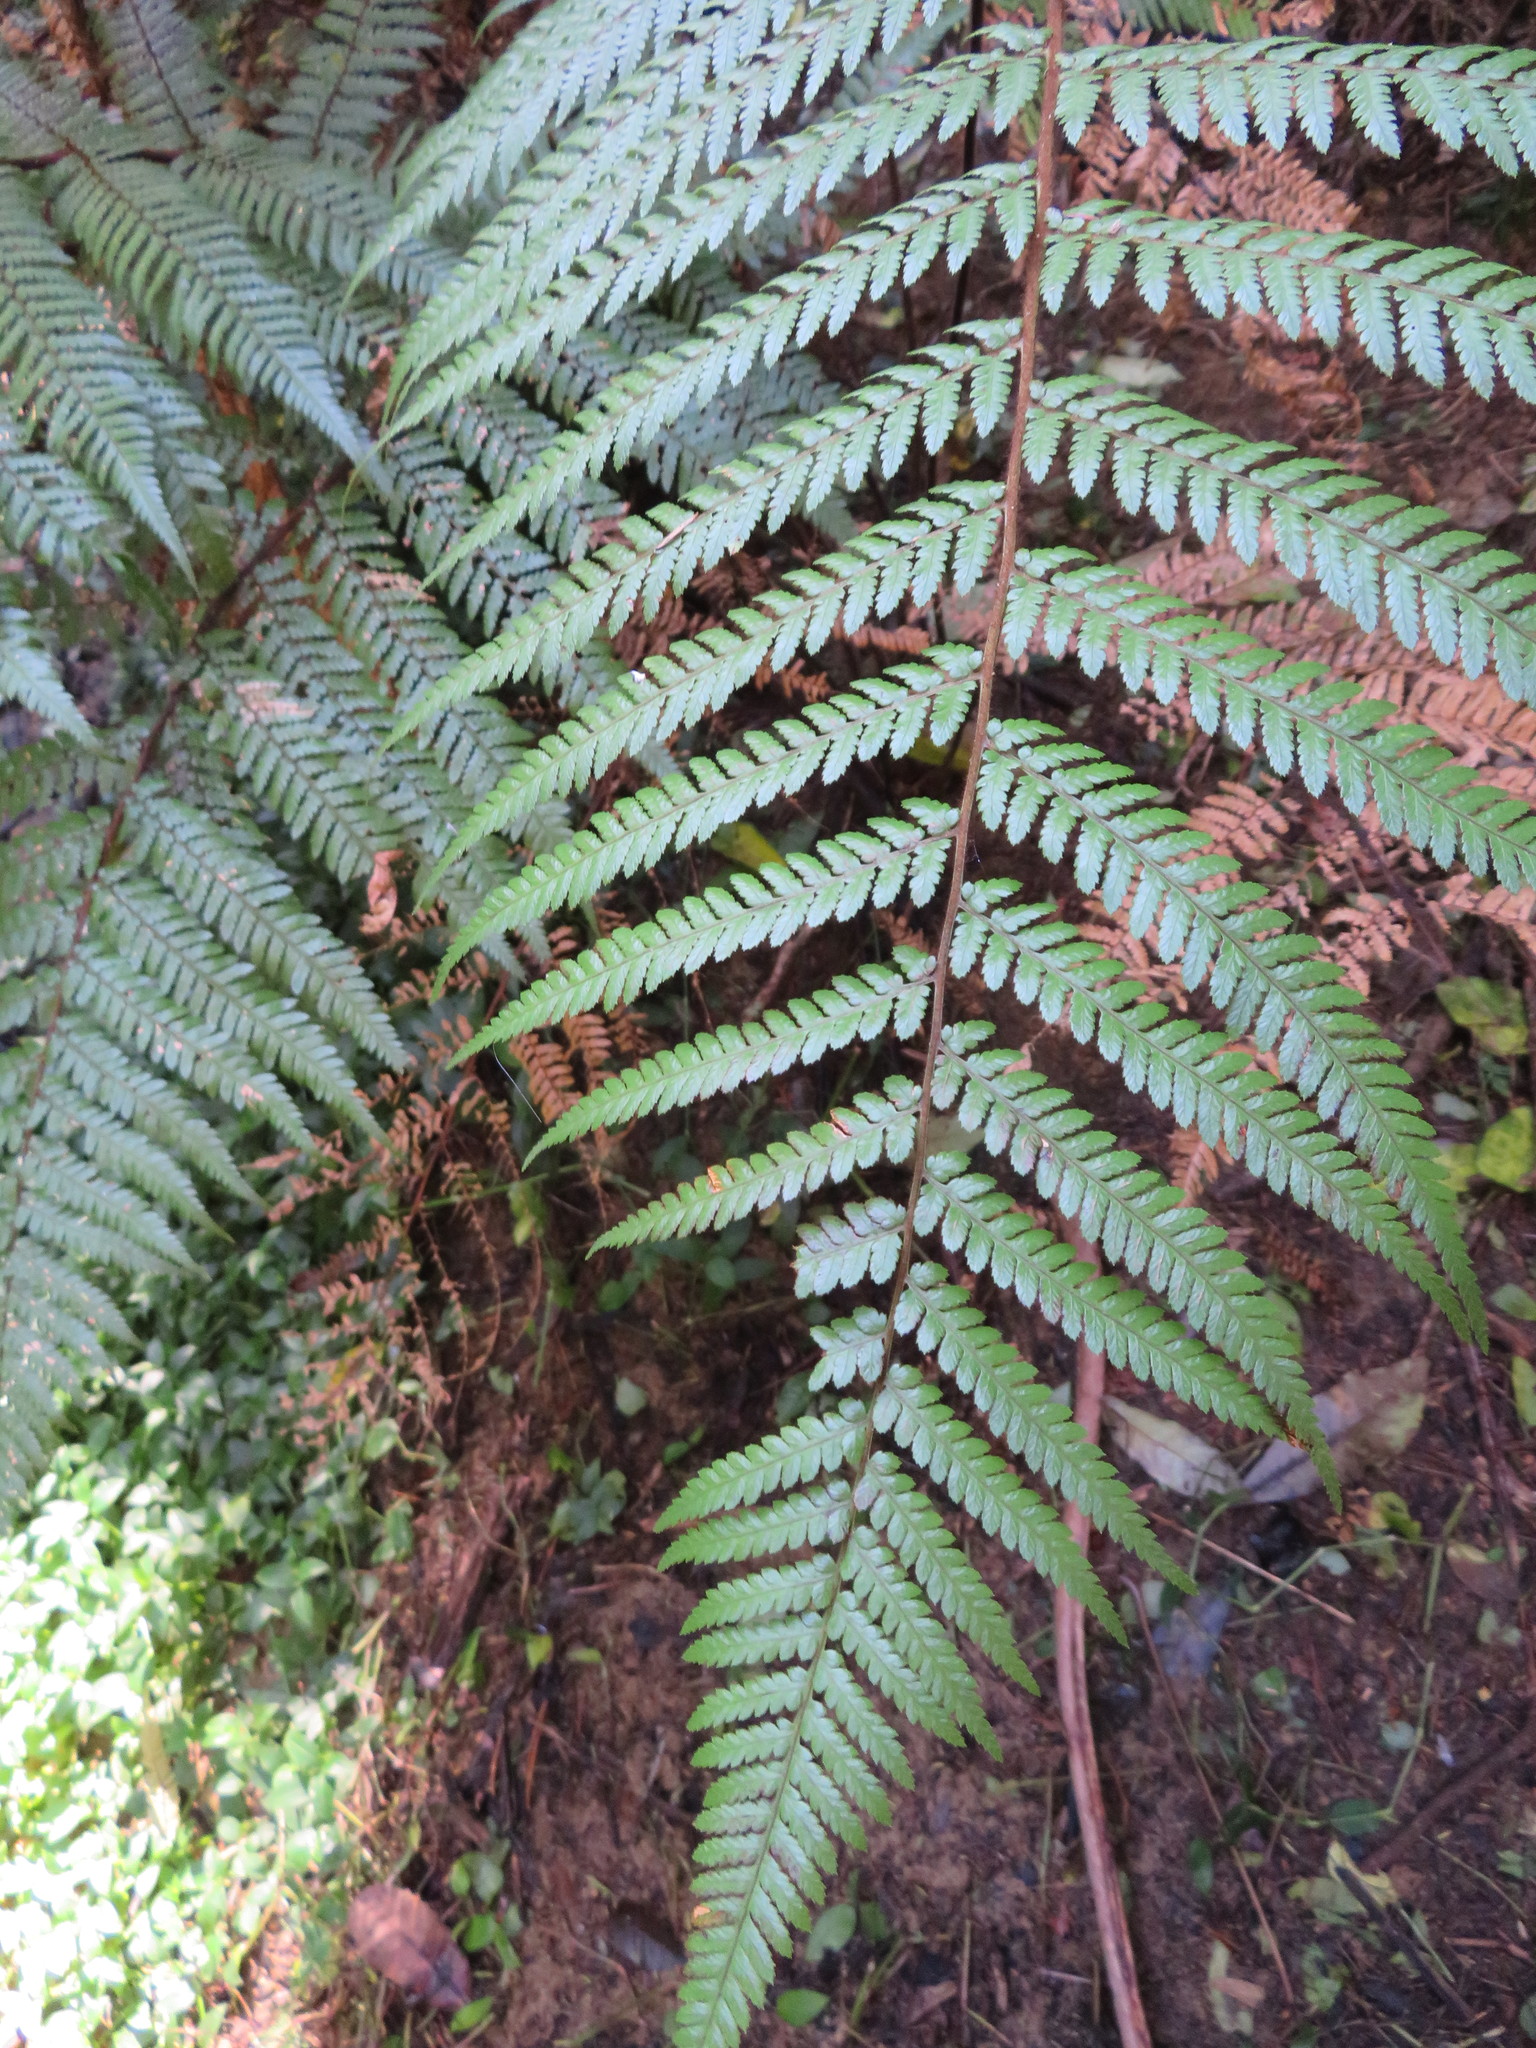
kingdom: Plantae
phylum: Tracheophyta
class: Polypodiopsida
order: Cyatheales
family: Dicksoniaceae
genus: Dicksonia
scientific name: Dicksonia squarrosa
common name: Hard treefern
